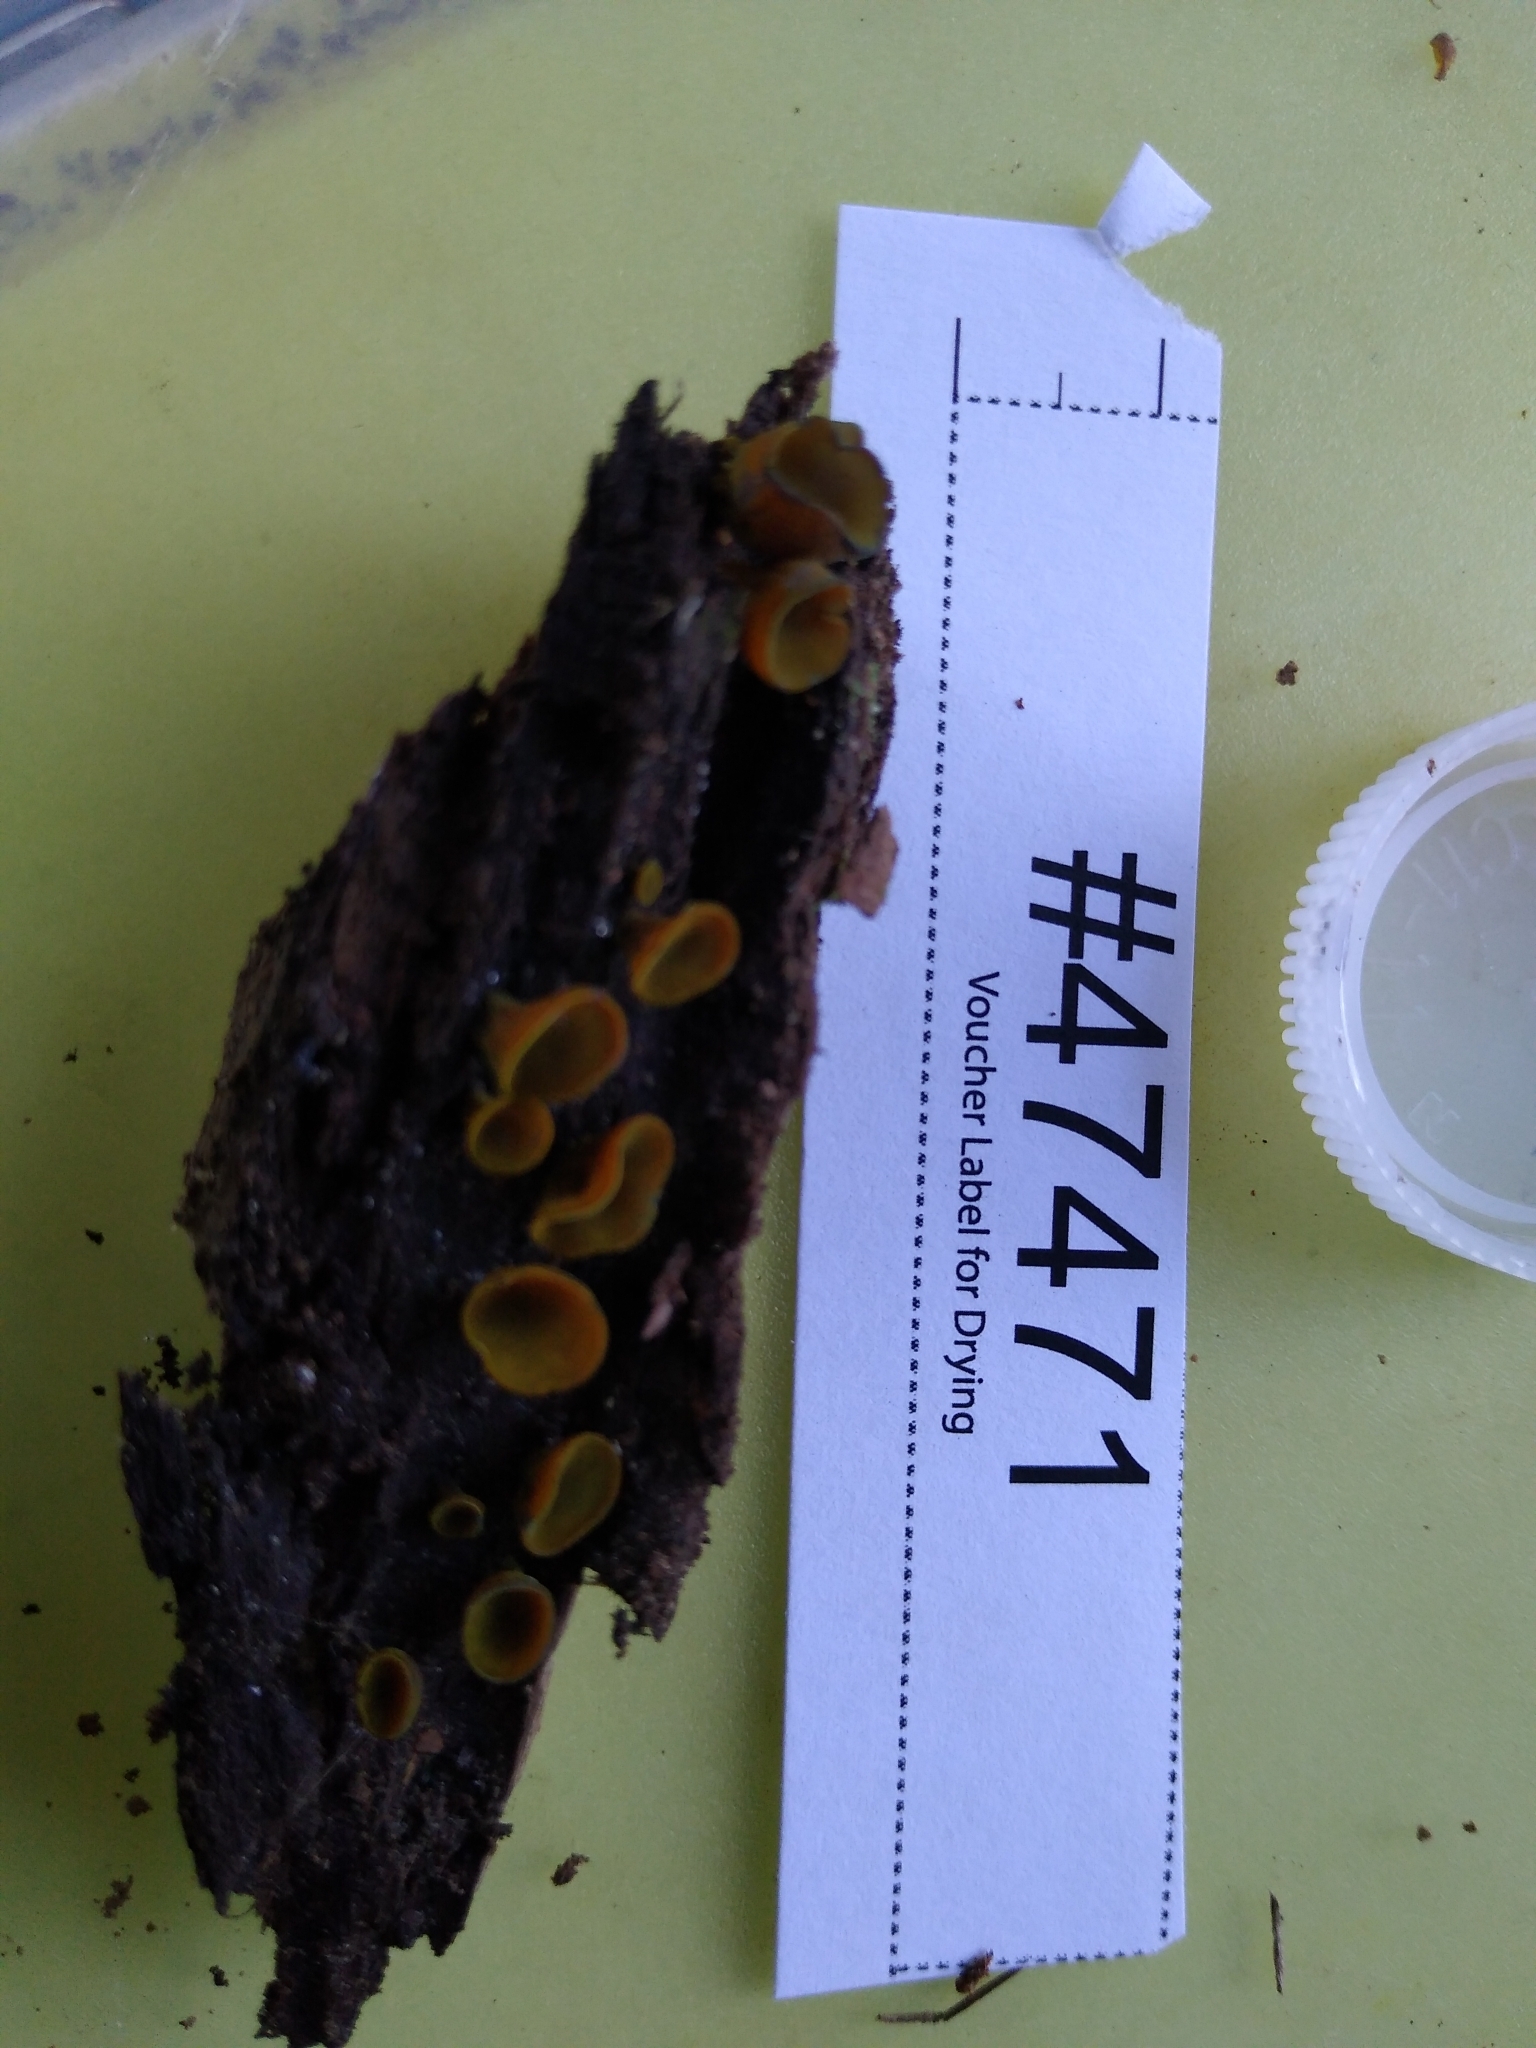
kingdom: Fungi
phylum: Ascomycota
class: Leotiomycetes
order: Helotiales
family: Cenangiaceae
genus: Chlorencoelia
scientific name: Chlorencoelia versiformis
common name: Flea's ear
